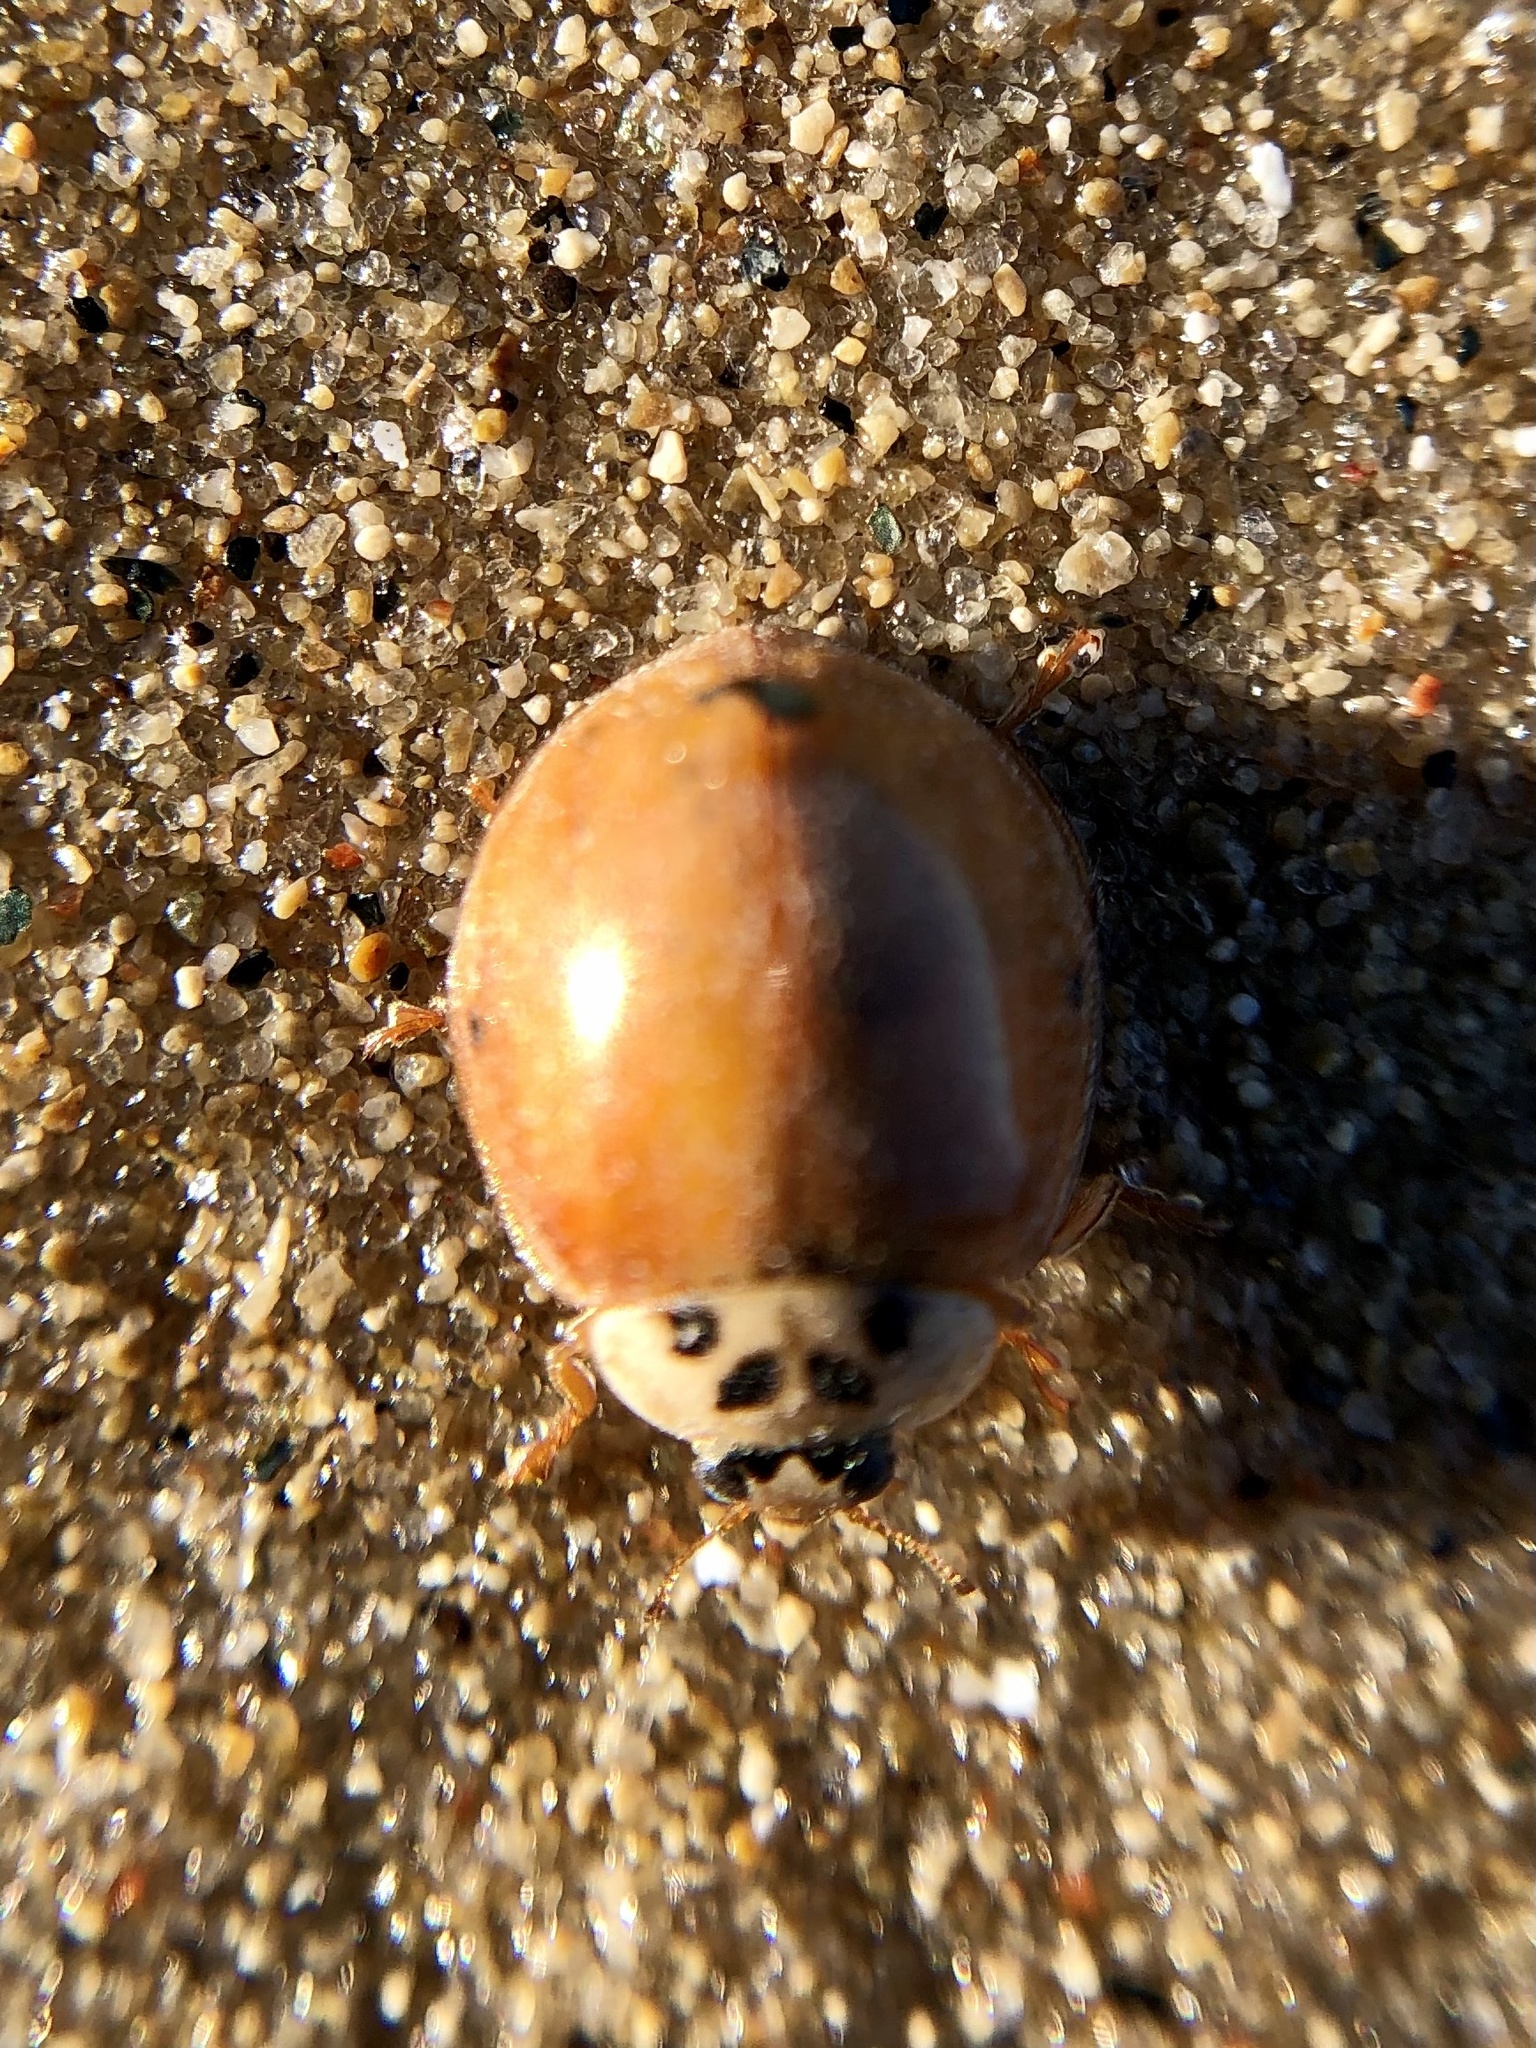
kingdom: Animalia
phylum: Arthropoda
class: Insecta
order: Coleoptera
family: Coccinellidae
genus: Harmonia
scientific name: Harmonia axyridis
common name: Harlequin ladybird
